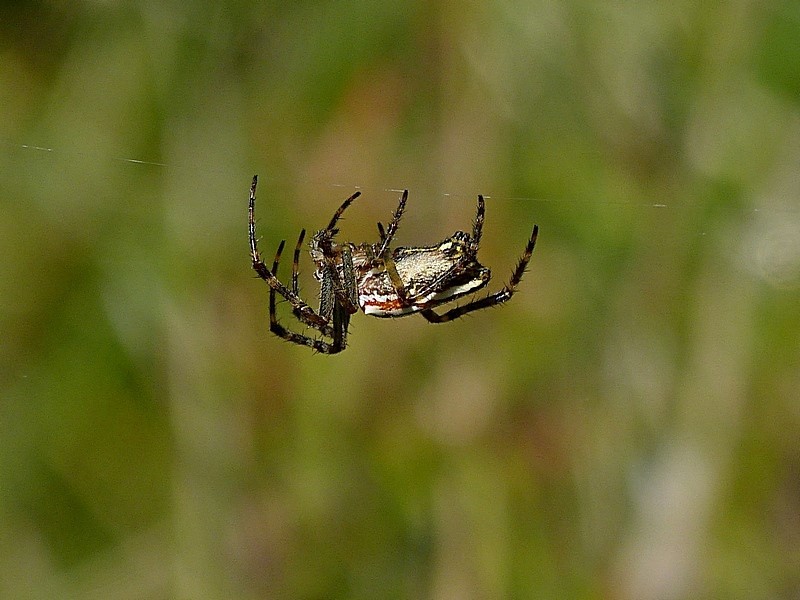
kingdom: Animalia
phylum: Arthropoda
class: Arachnida
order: Araneae
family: Araneidae
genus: Plebs
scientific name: Plebs bradleyi
